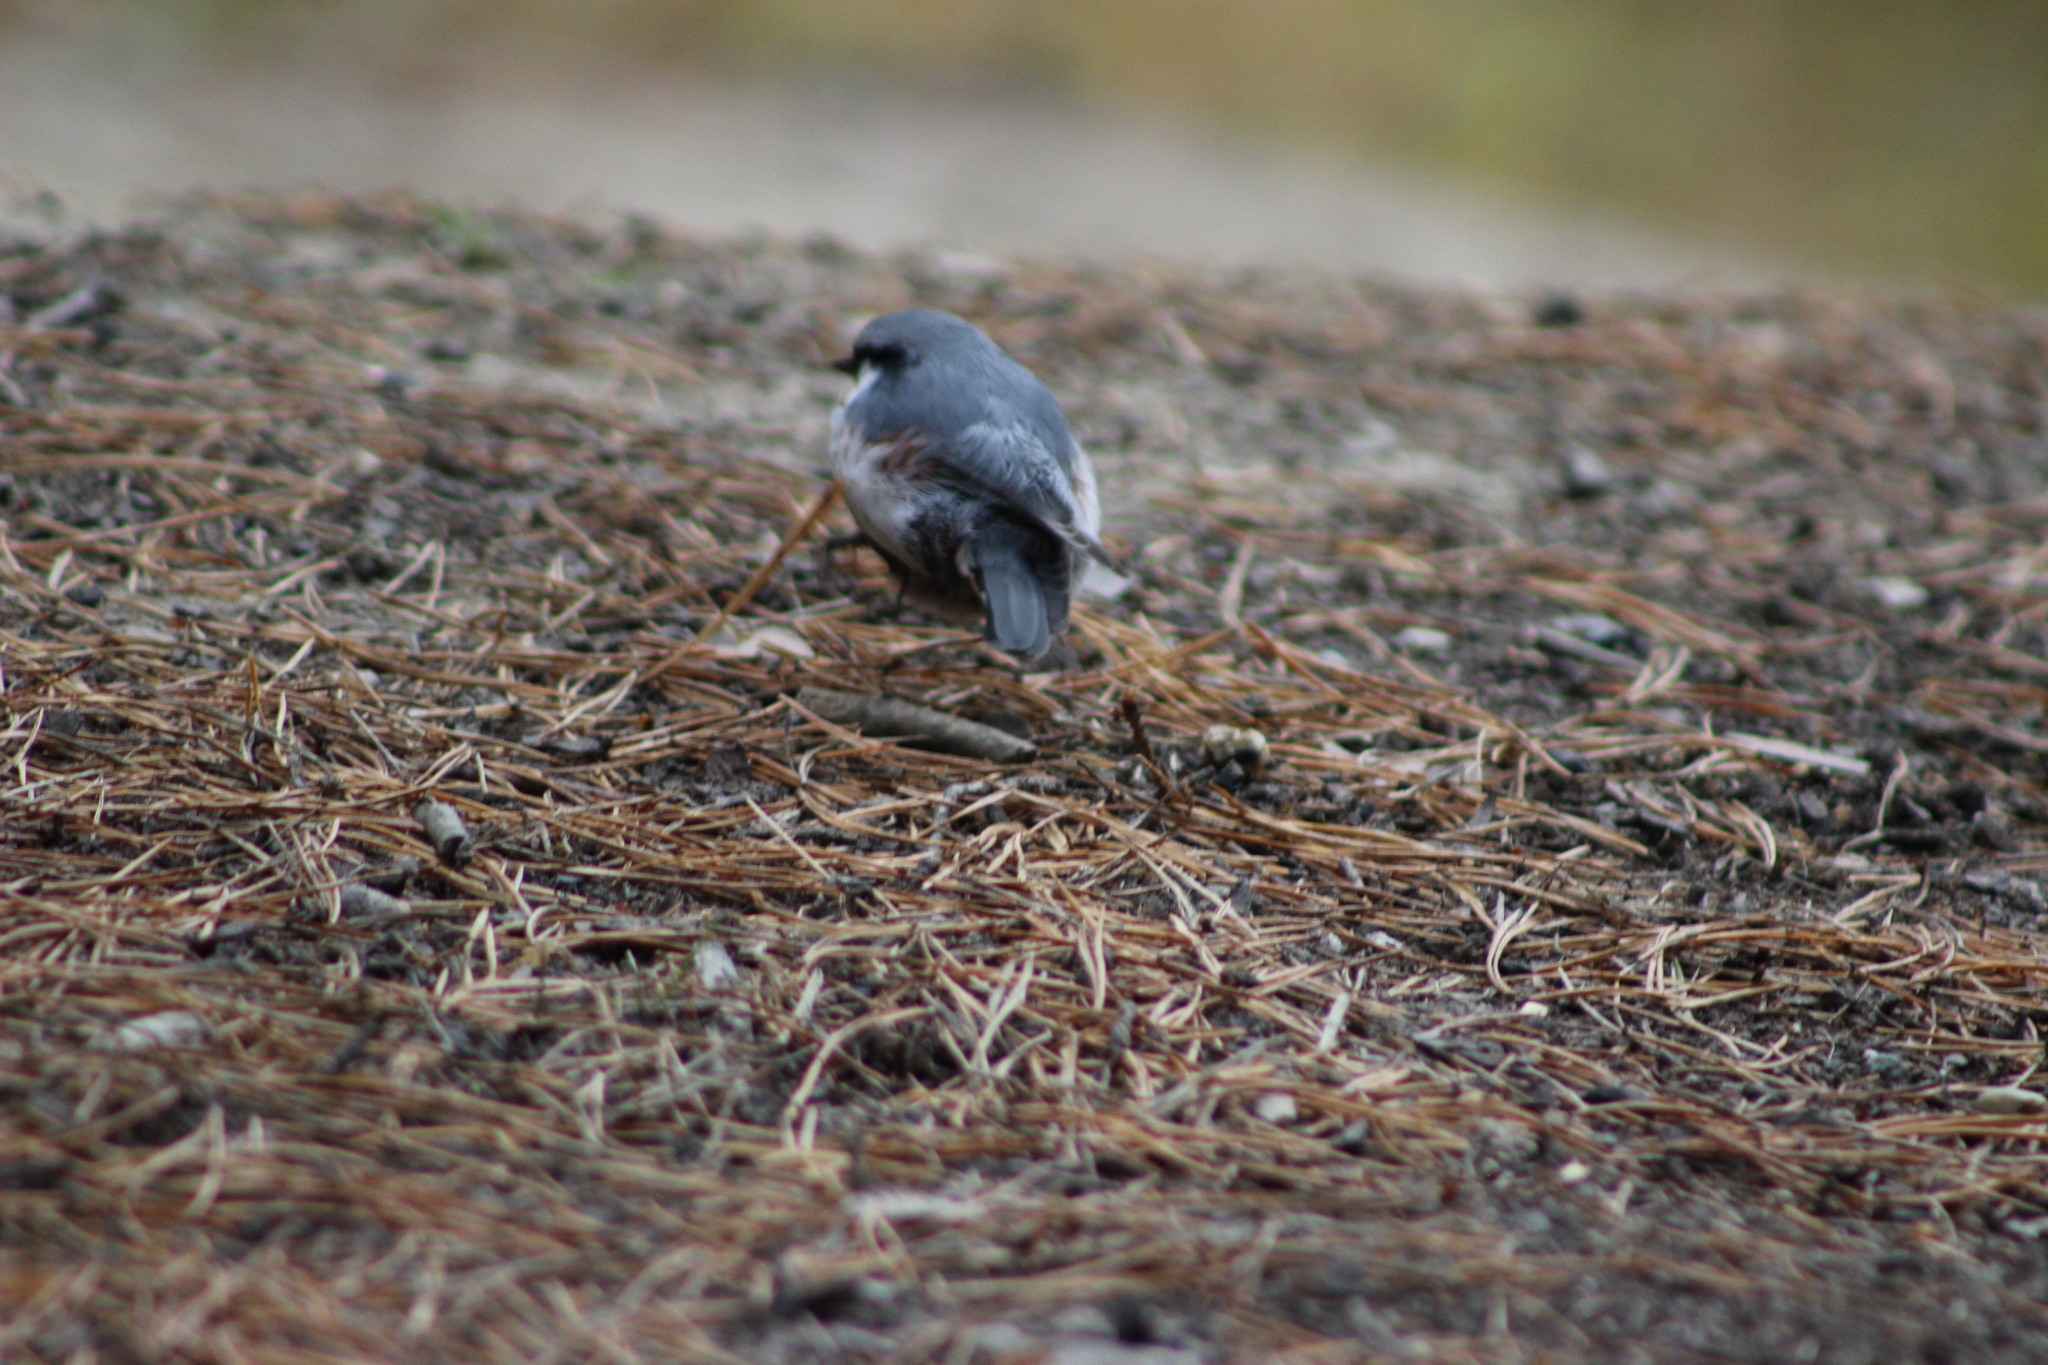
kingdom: Animalia
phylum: Chordata
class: Aves
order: Passeriformes
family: Sittidae
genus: Sitta
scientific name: Sitta europaea
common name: Eurasian nuthatch
